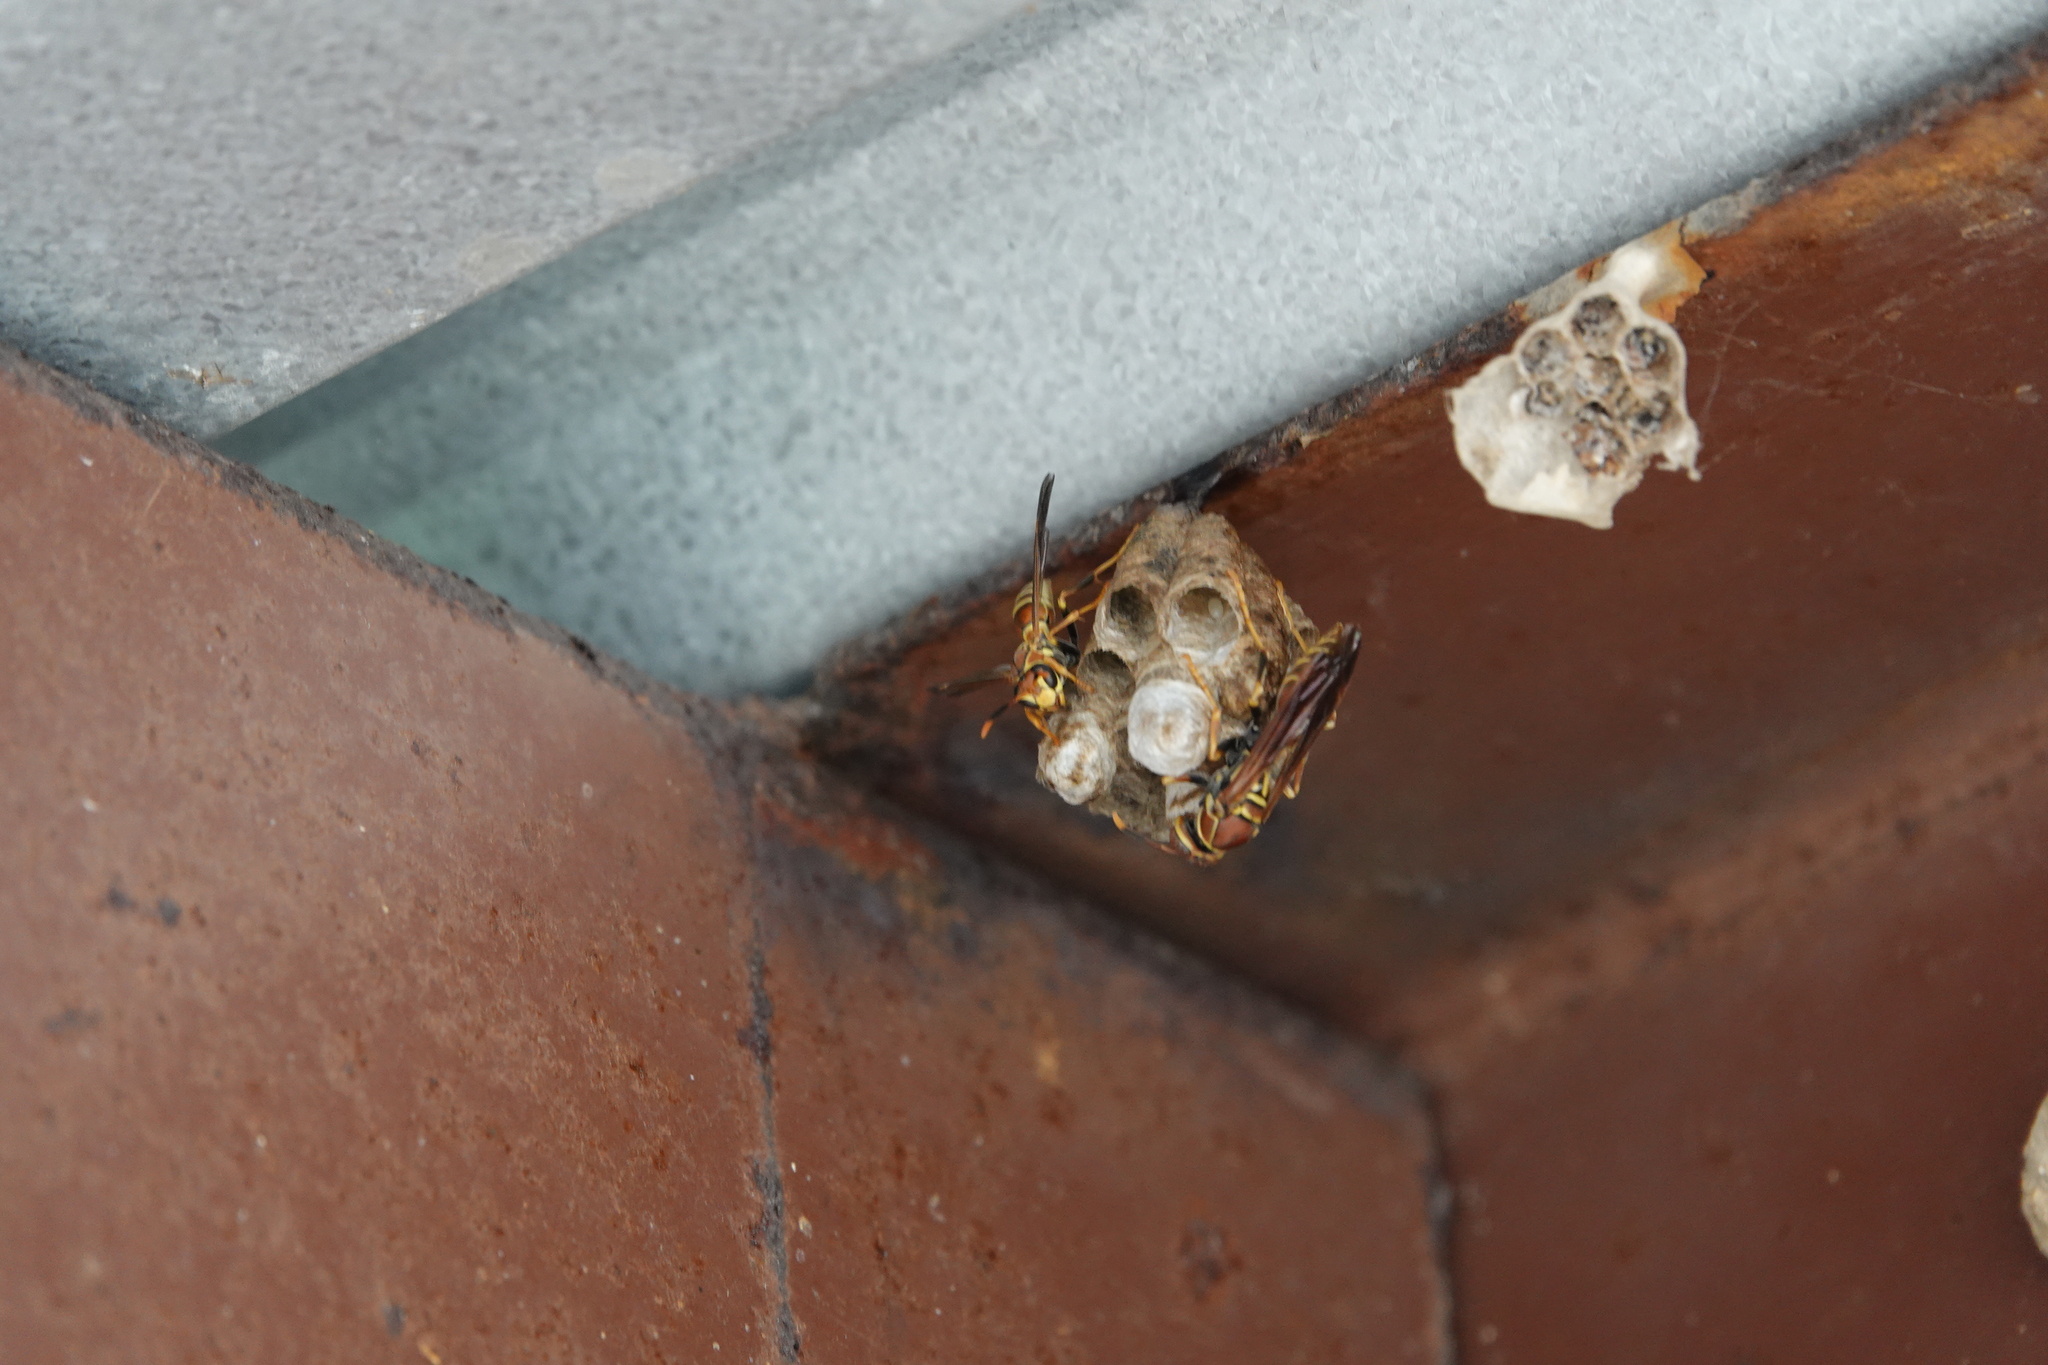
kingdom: Animalia
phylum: Arthropoda
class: Insecta
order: Hymenoptera
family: Eumenidae
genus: Polistes
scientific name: Polistes exclamans
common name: Paper wasp
